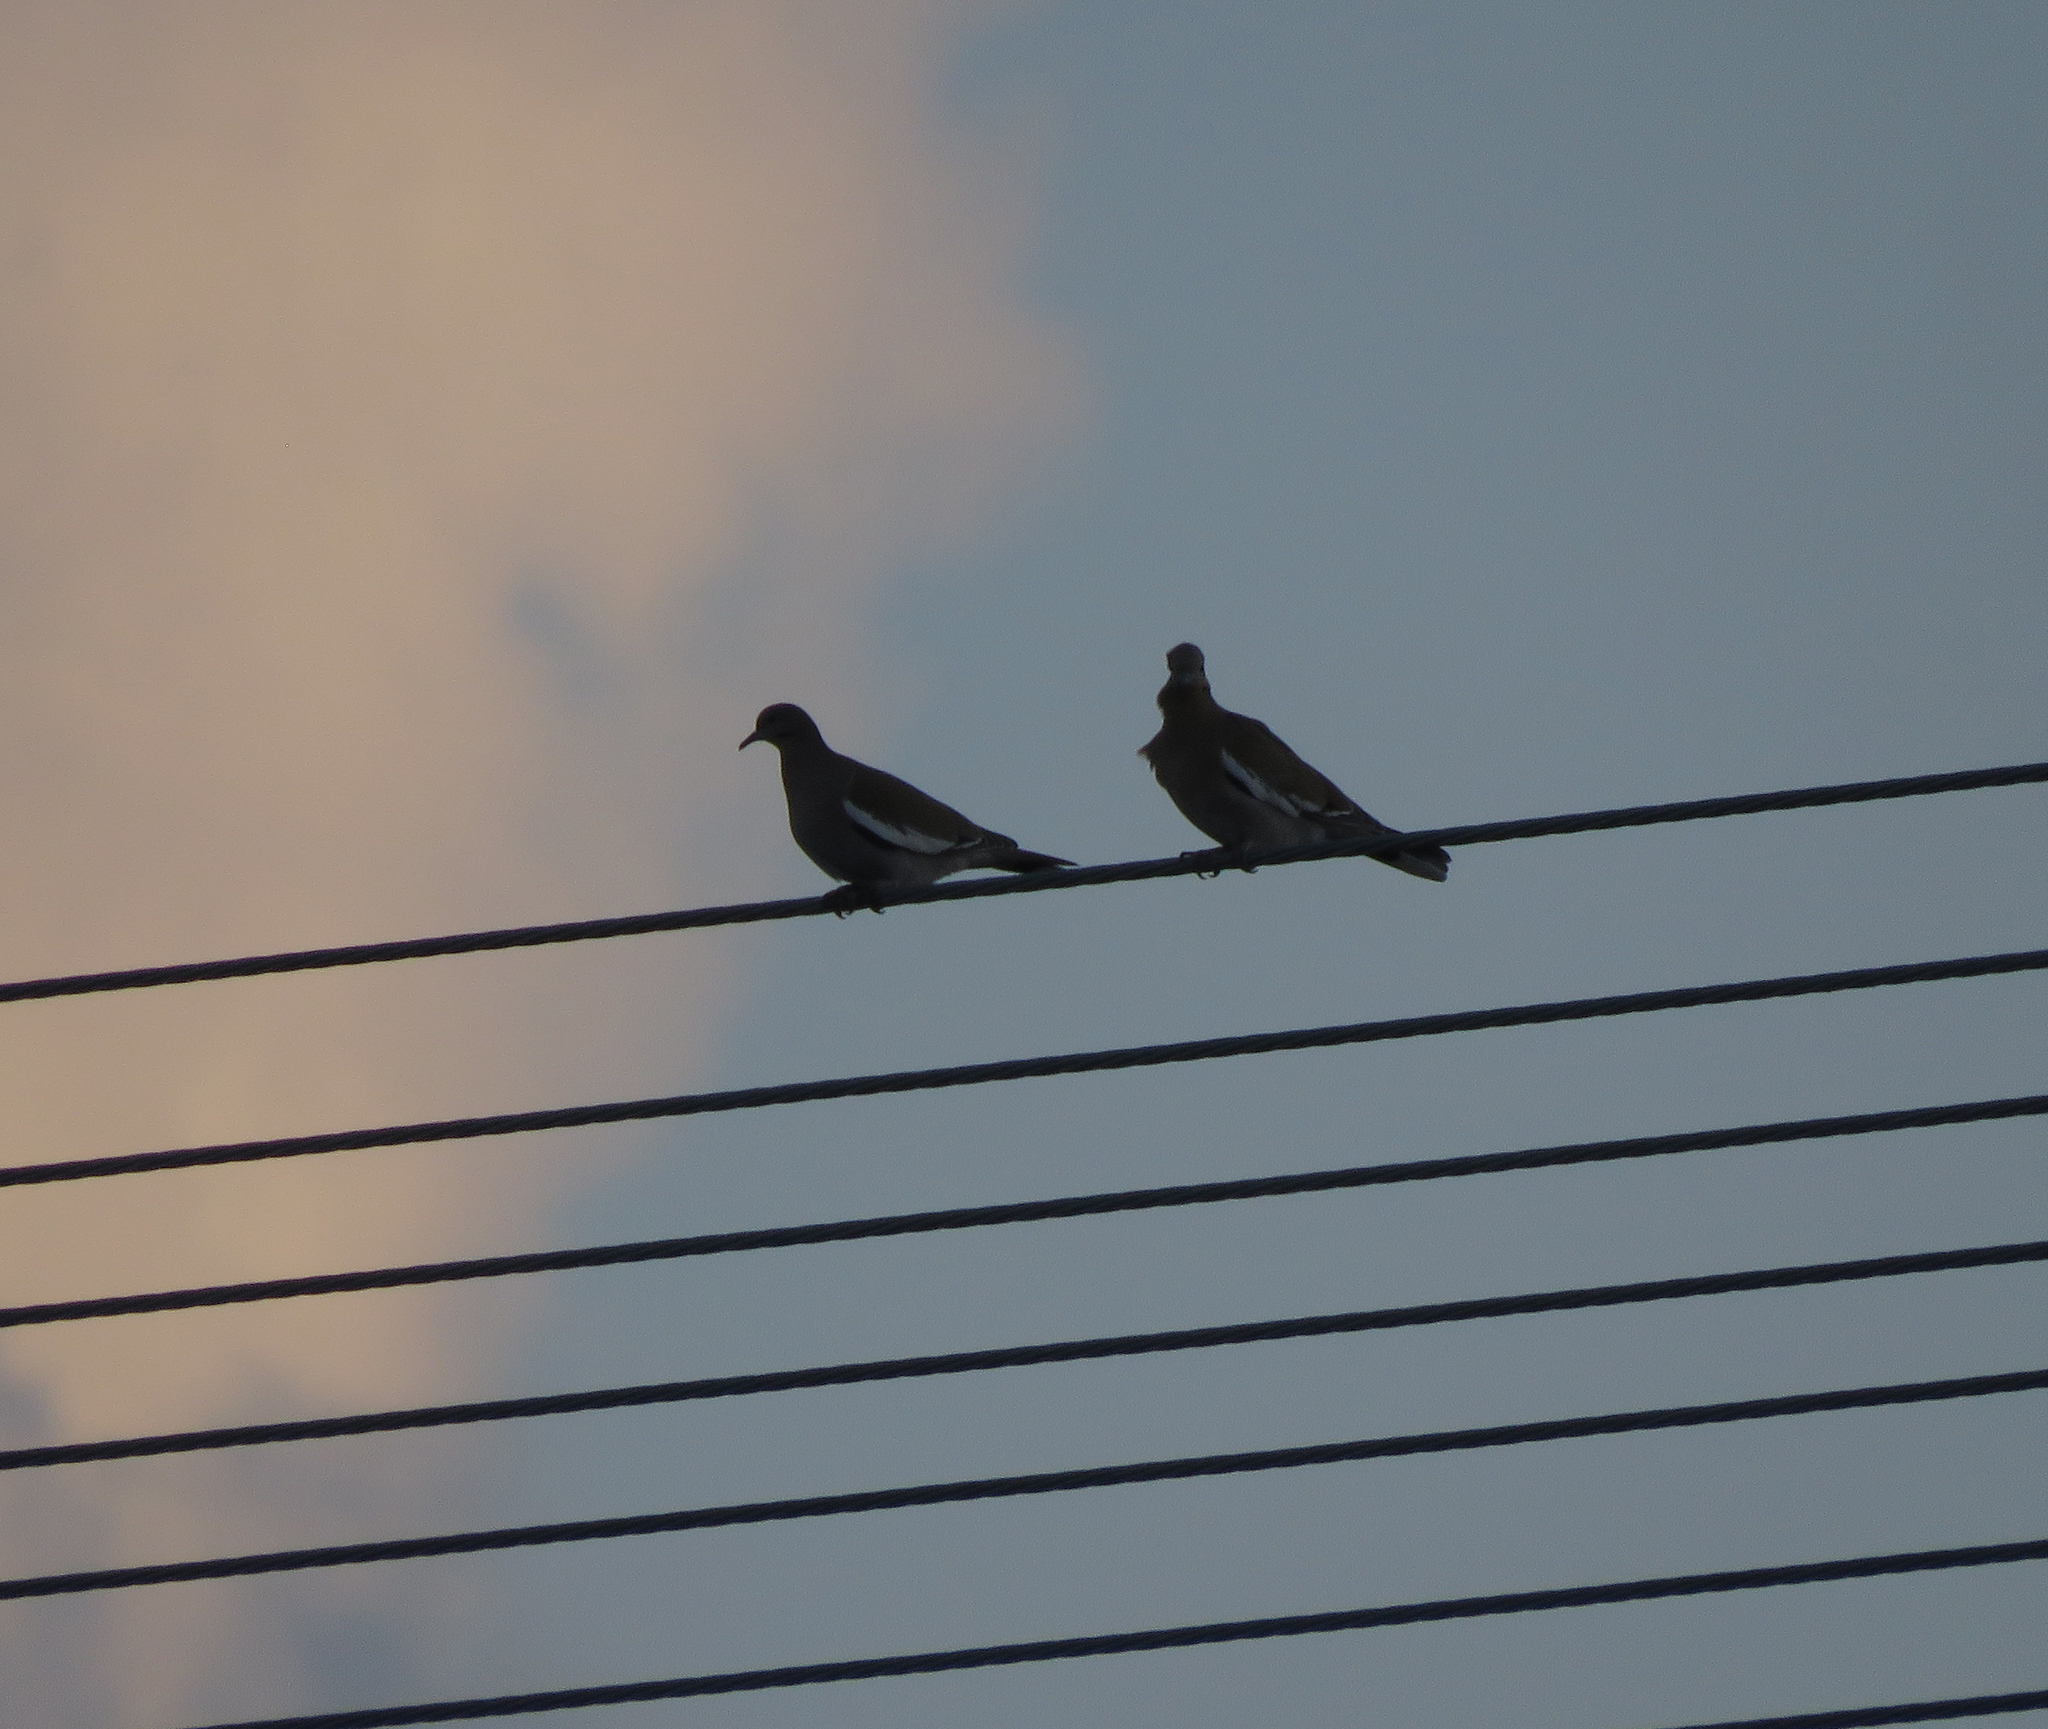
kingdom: Animalia
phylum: Chordata
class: Aves
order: Columbiformes
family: Columbidae
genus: Zenaida
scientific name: Zenaida asiatica
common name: White-winged dove
